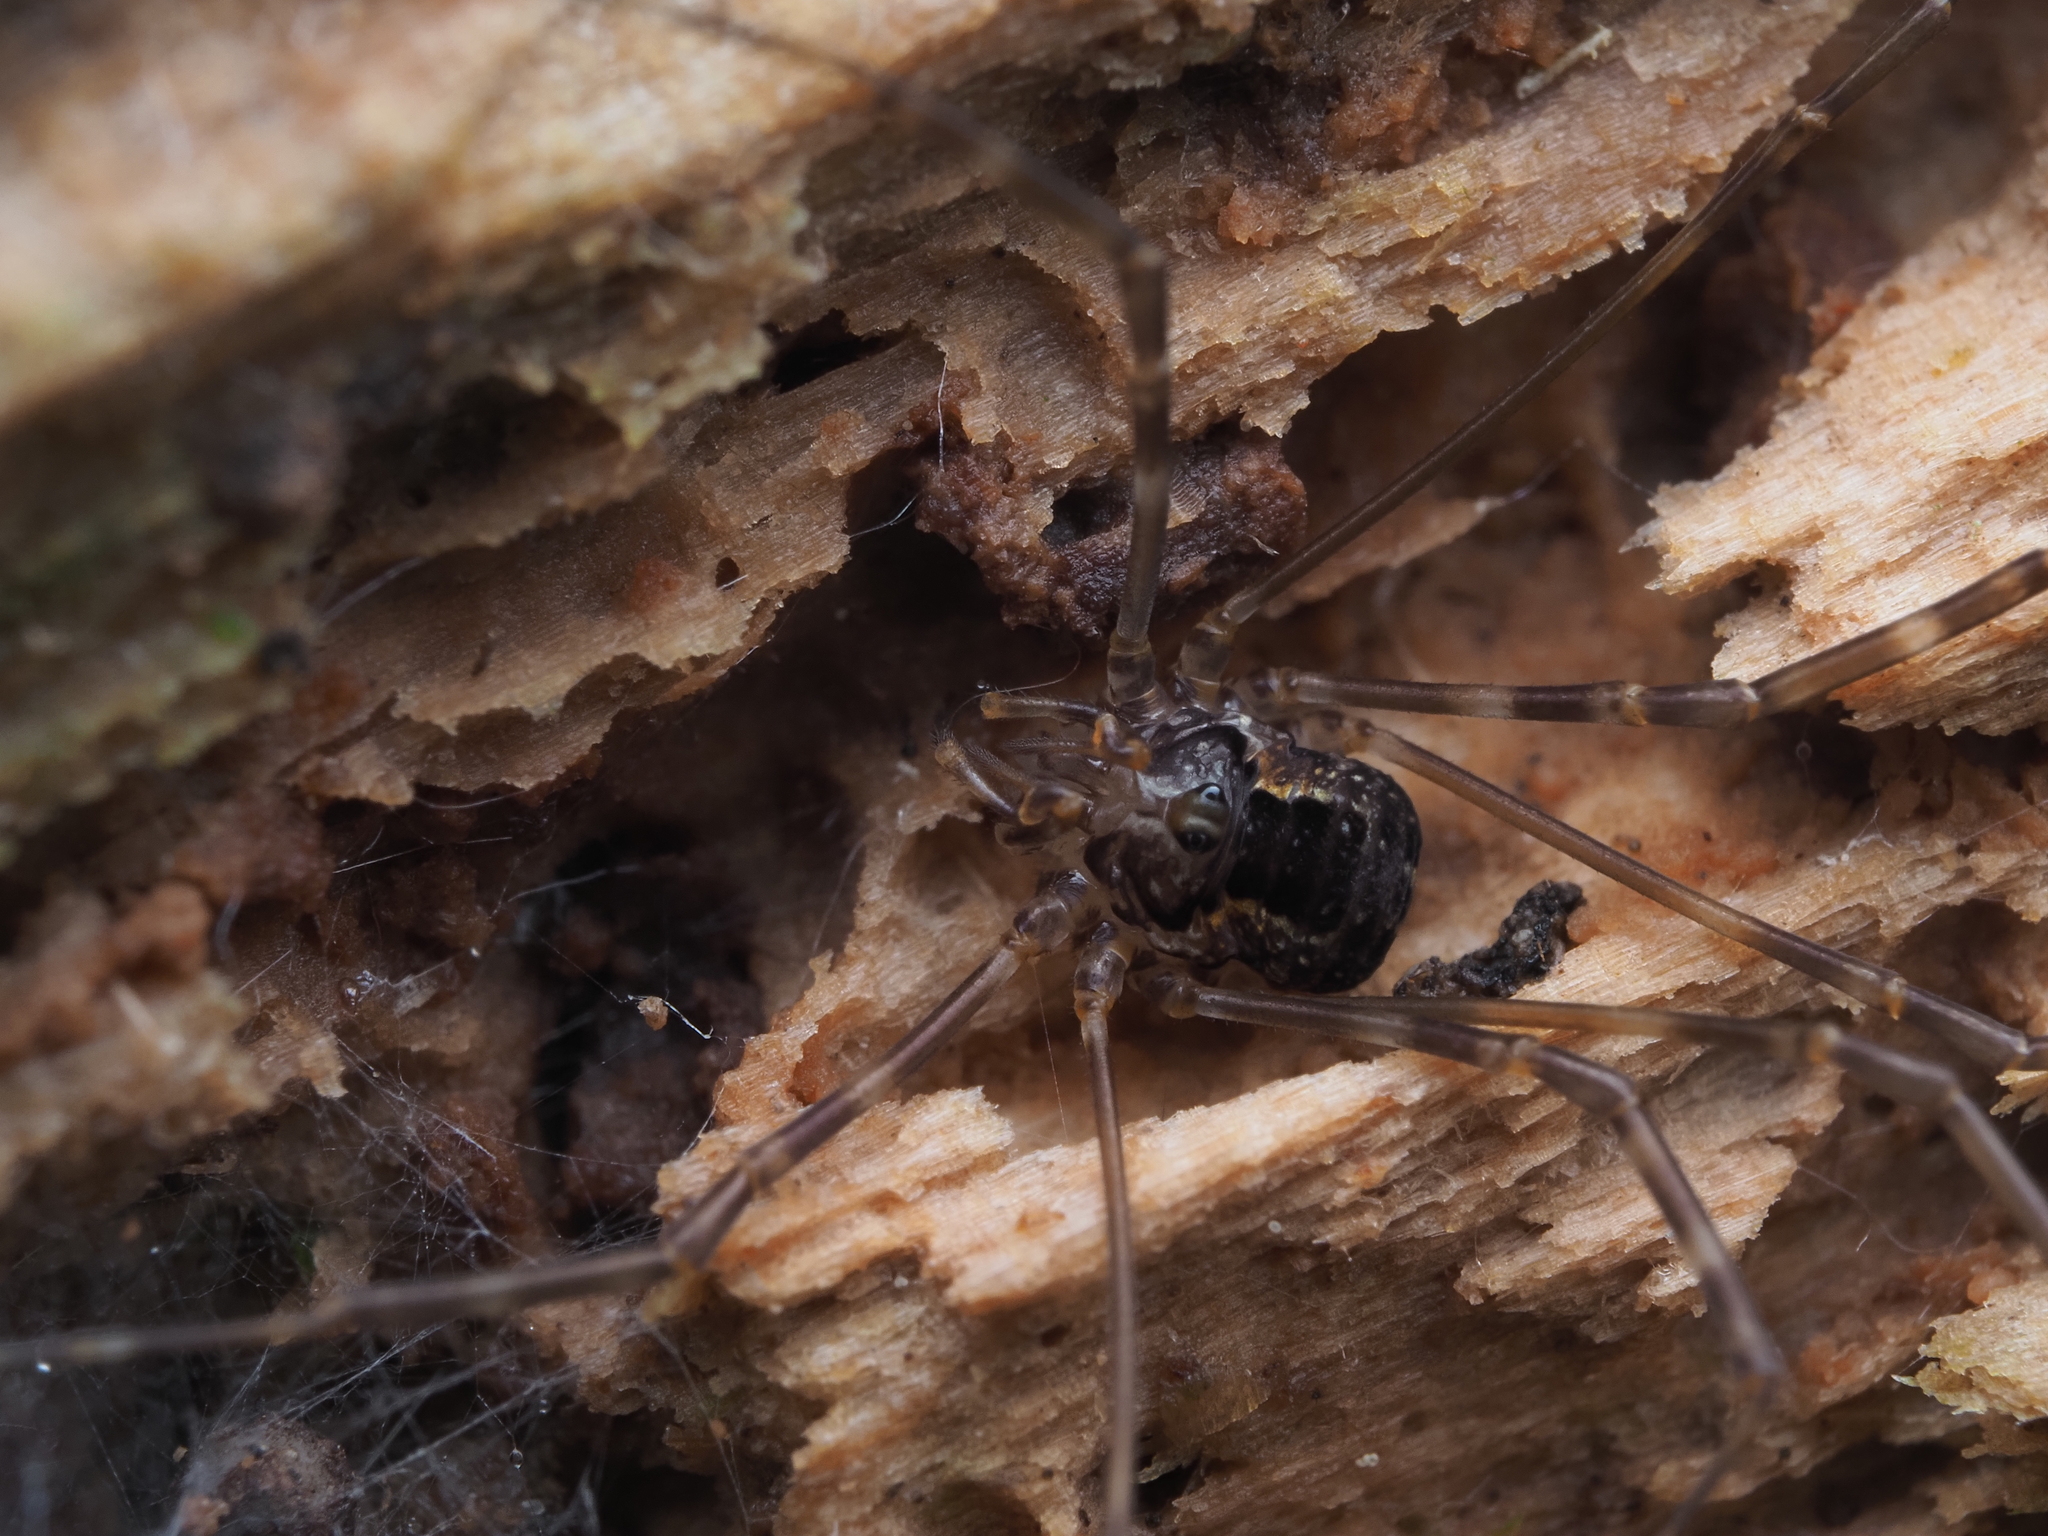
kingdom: Animalia
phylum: Arthropoda
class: Arachnida
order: Opiliones
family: Neopilionidae
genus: Megalopsalis
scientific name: Megalopsalis triascuta
